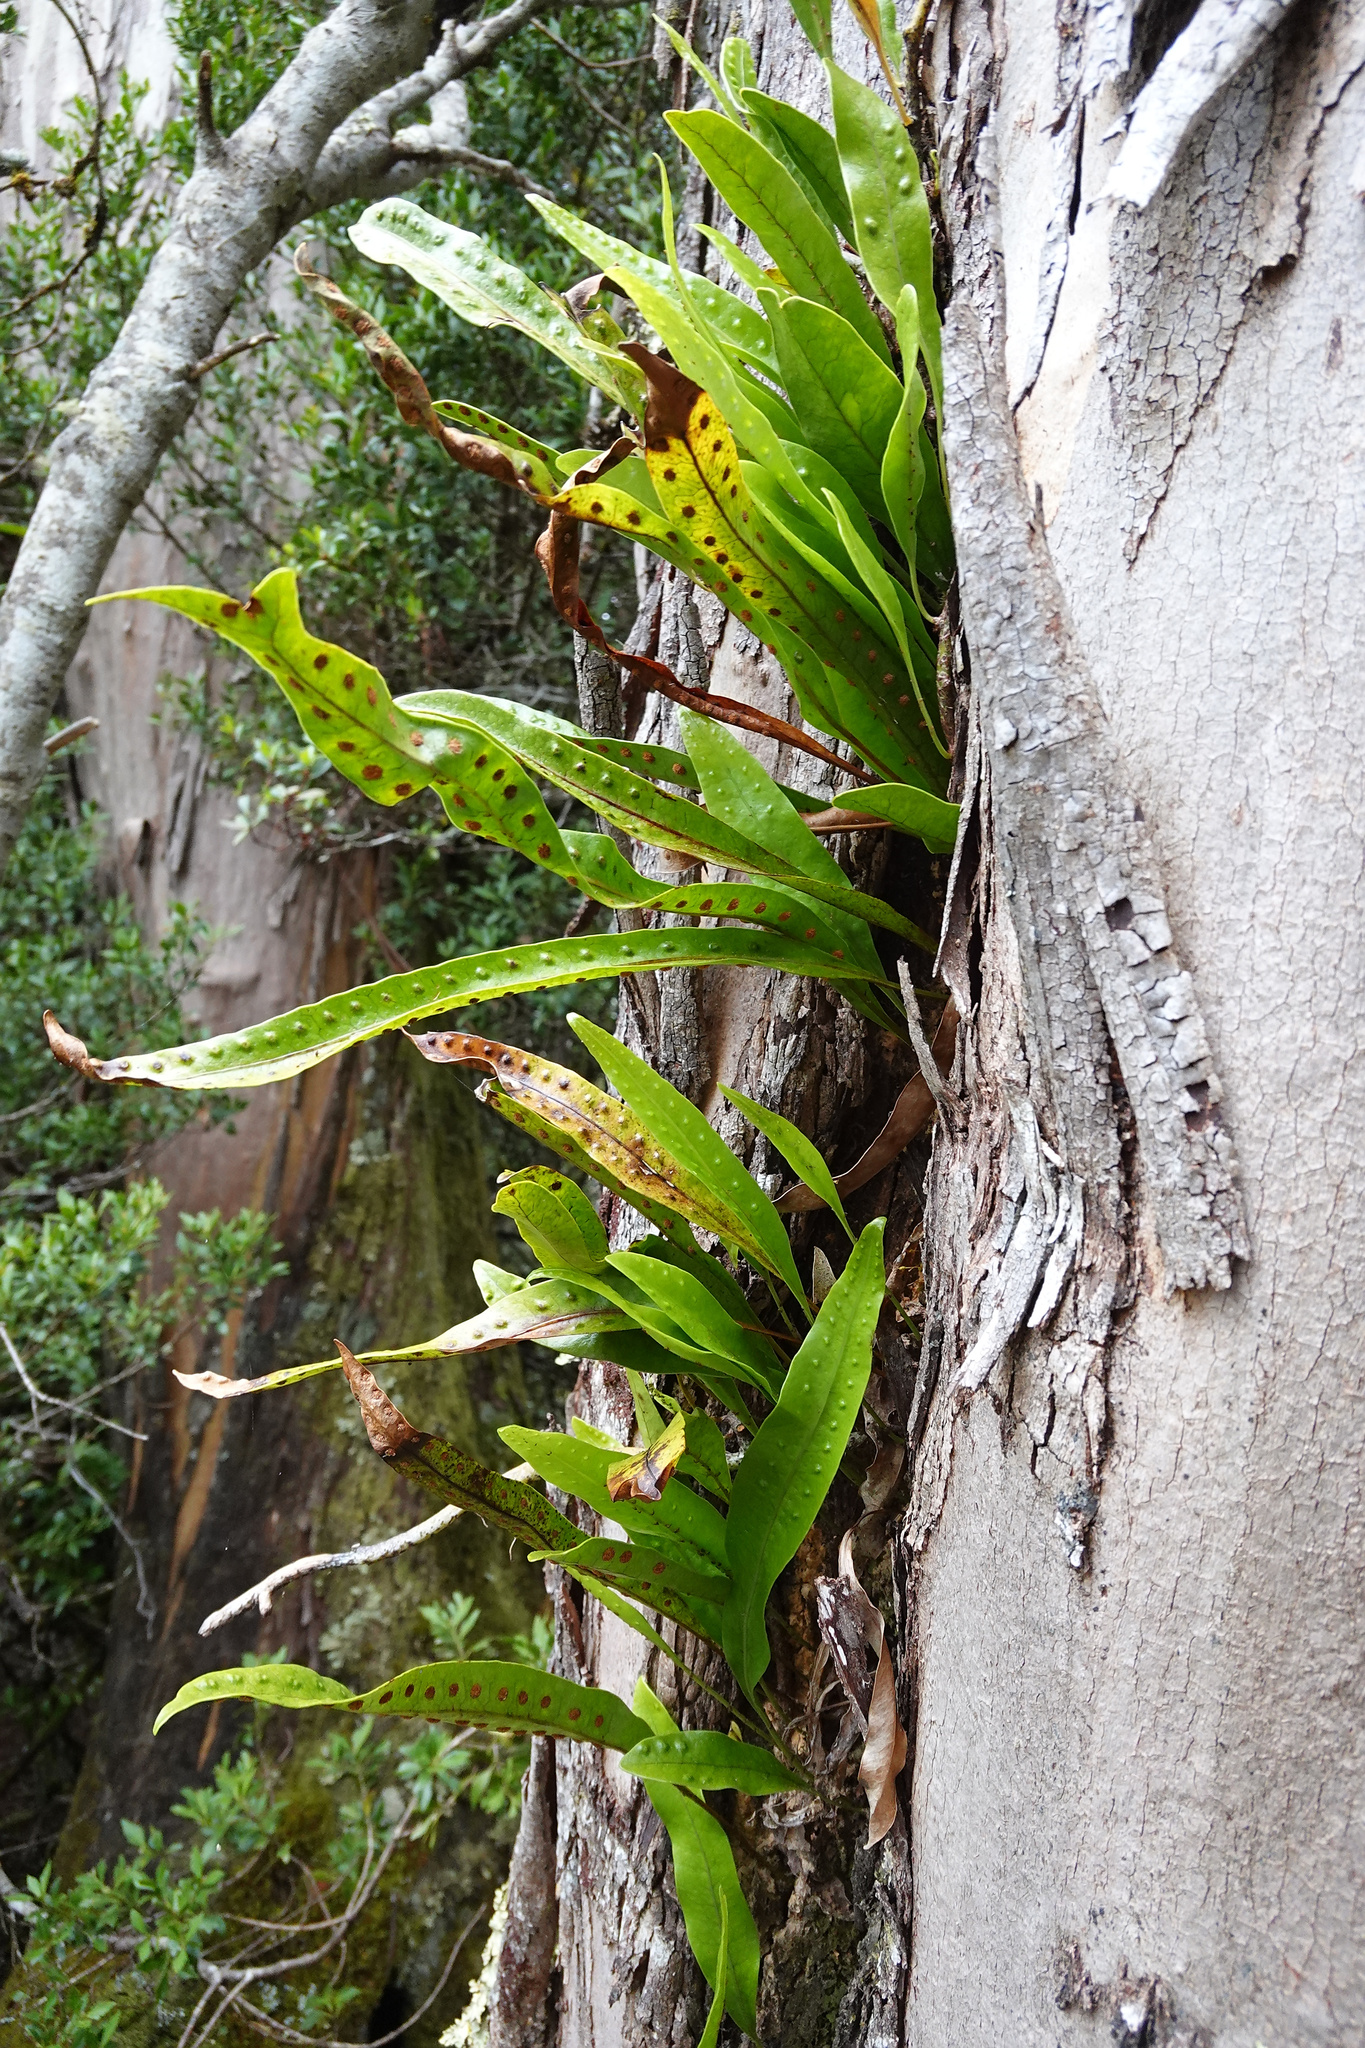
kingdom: Plantae
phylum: Tracheophyta
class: Polypodiopsida
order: Polypodiales
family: Polypodiaceae
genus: Lecanopteris
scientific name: Lecanopteris pustulata
